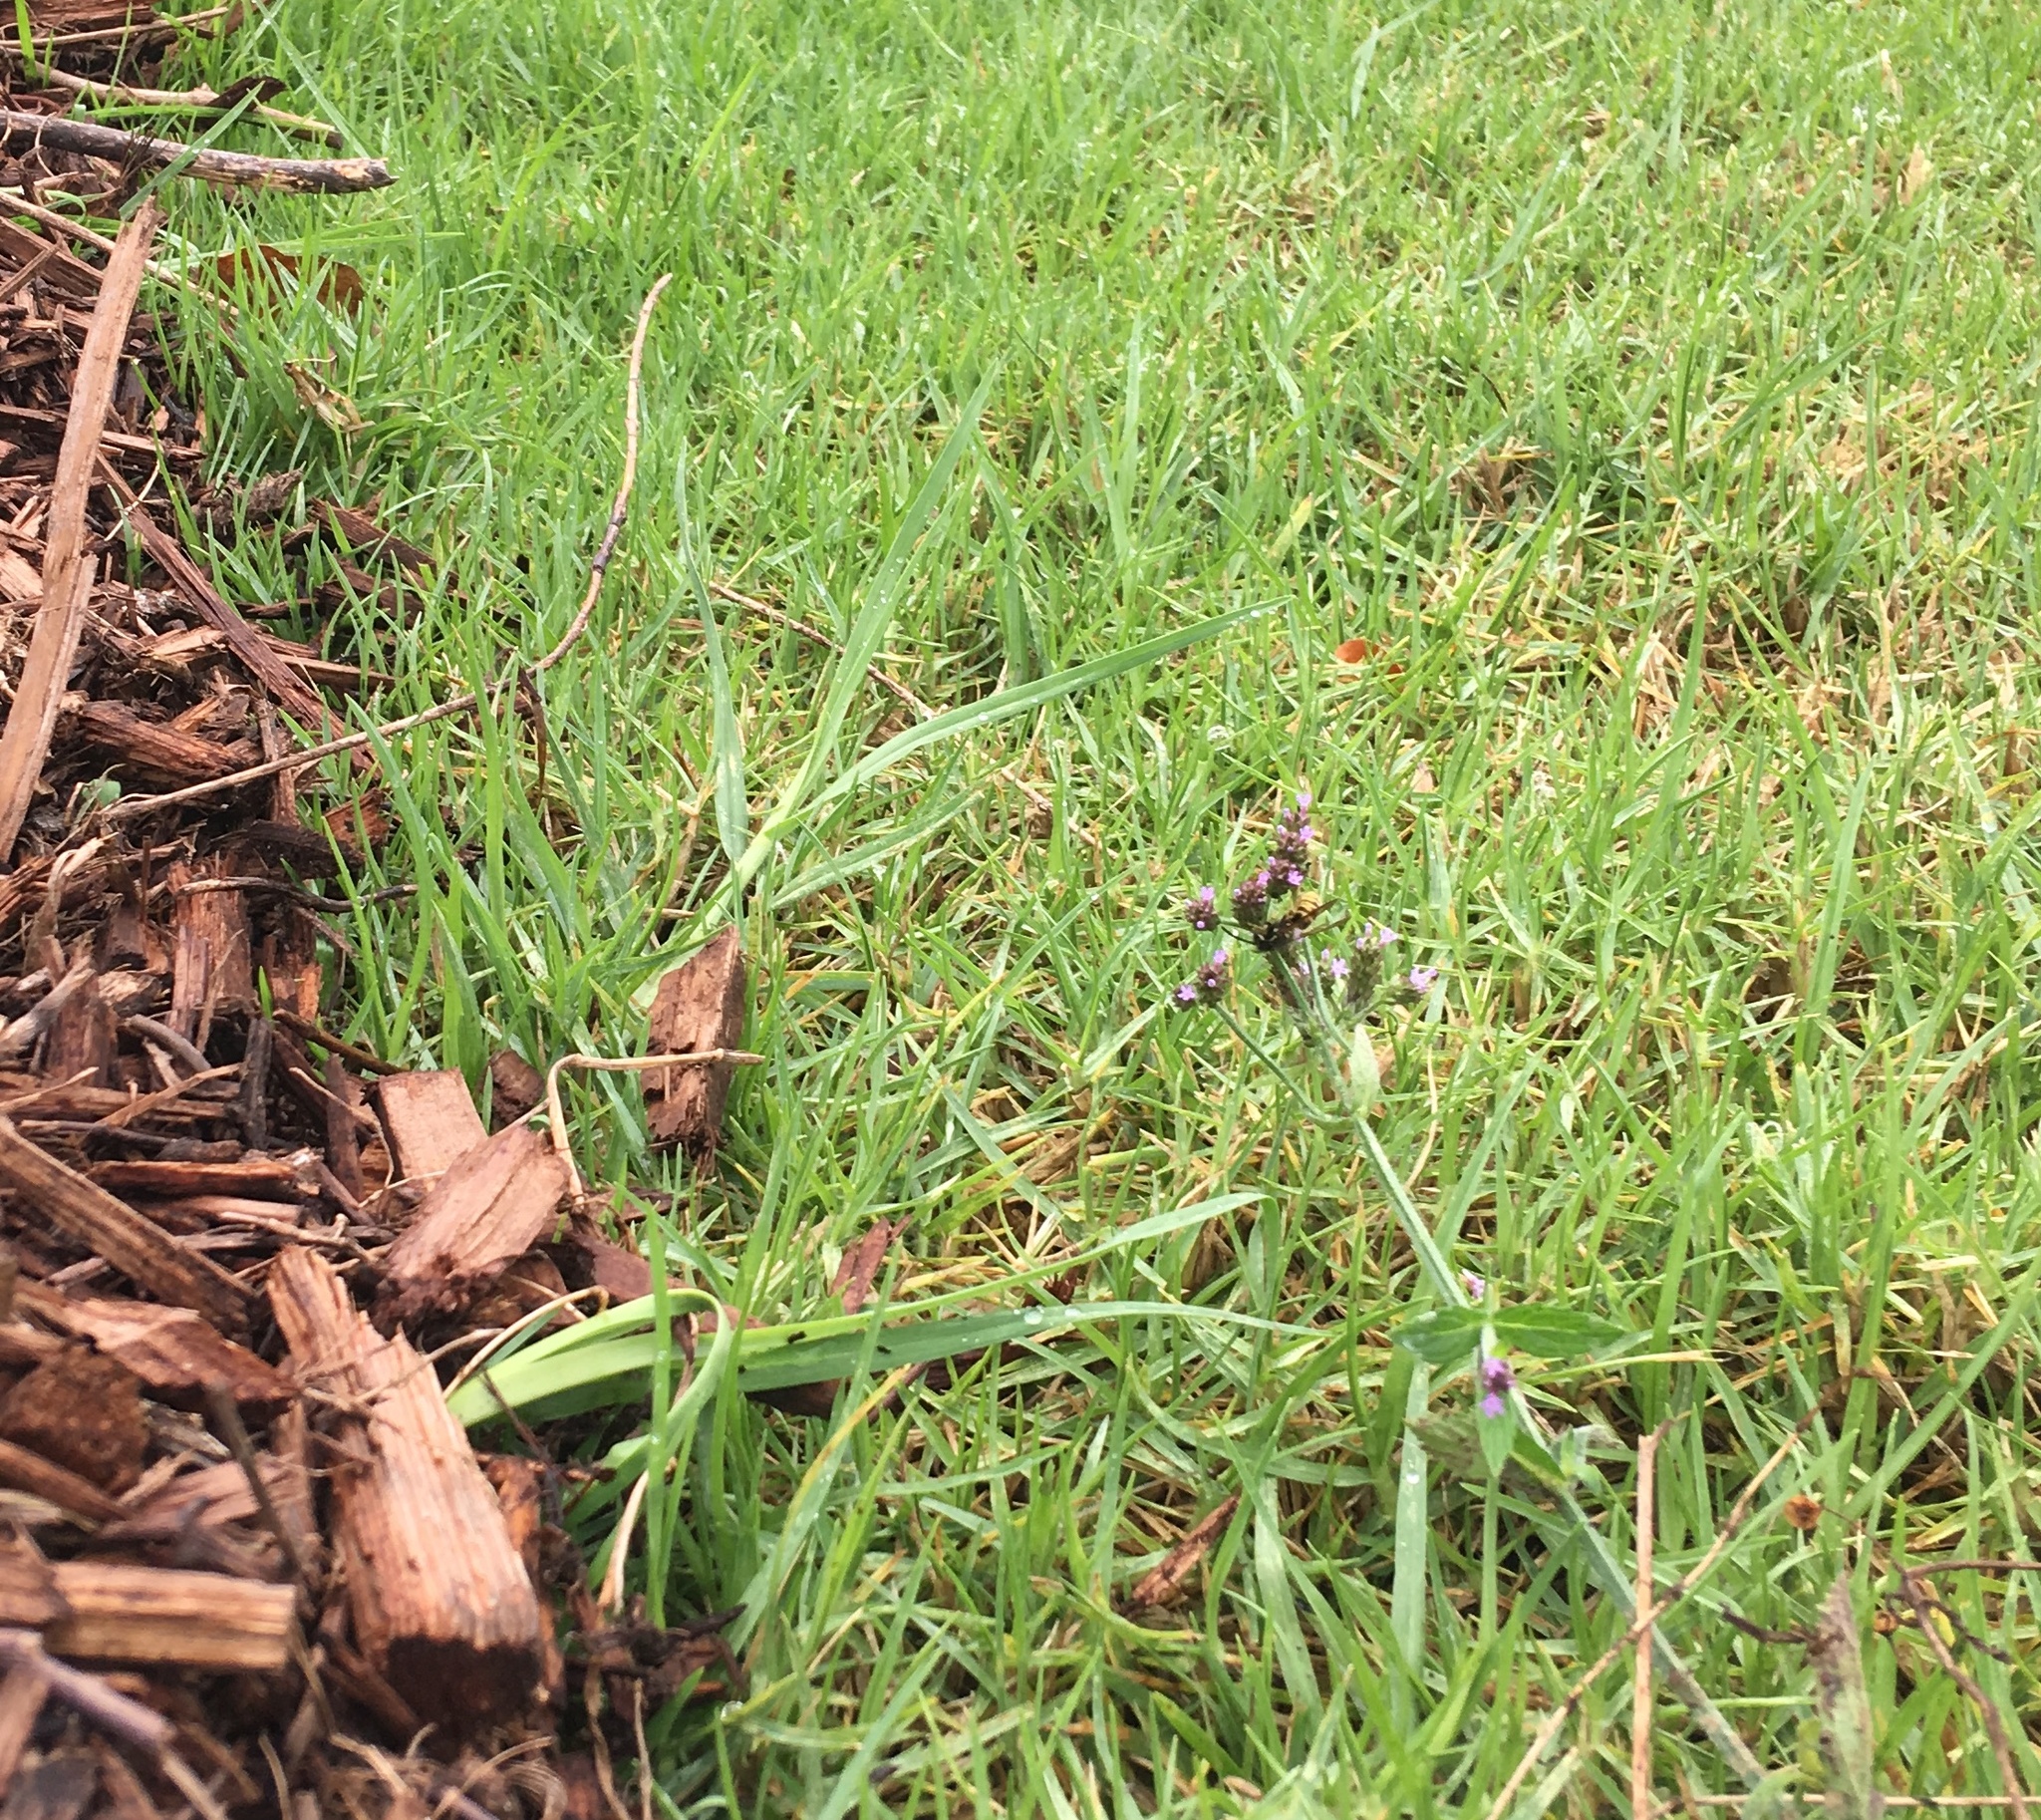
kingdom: Plantae
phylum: Tracheophyta
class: Liliopsida
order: Poales
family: Poaceae
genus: Cenchrus
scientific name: Cenchrus clandestinus
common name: Kikuyugrass
